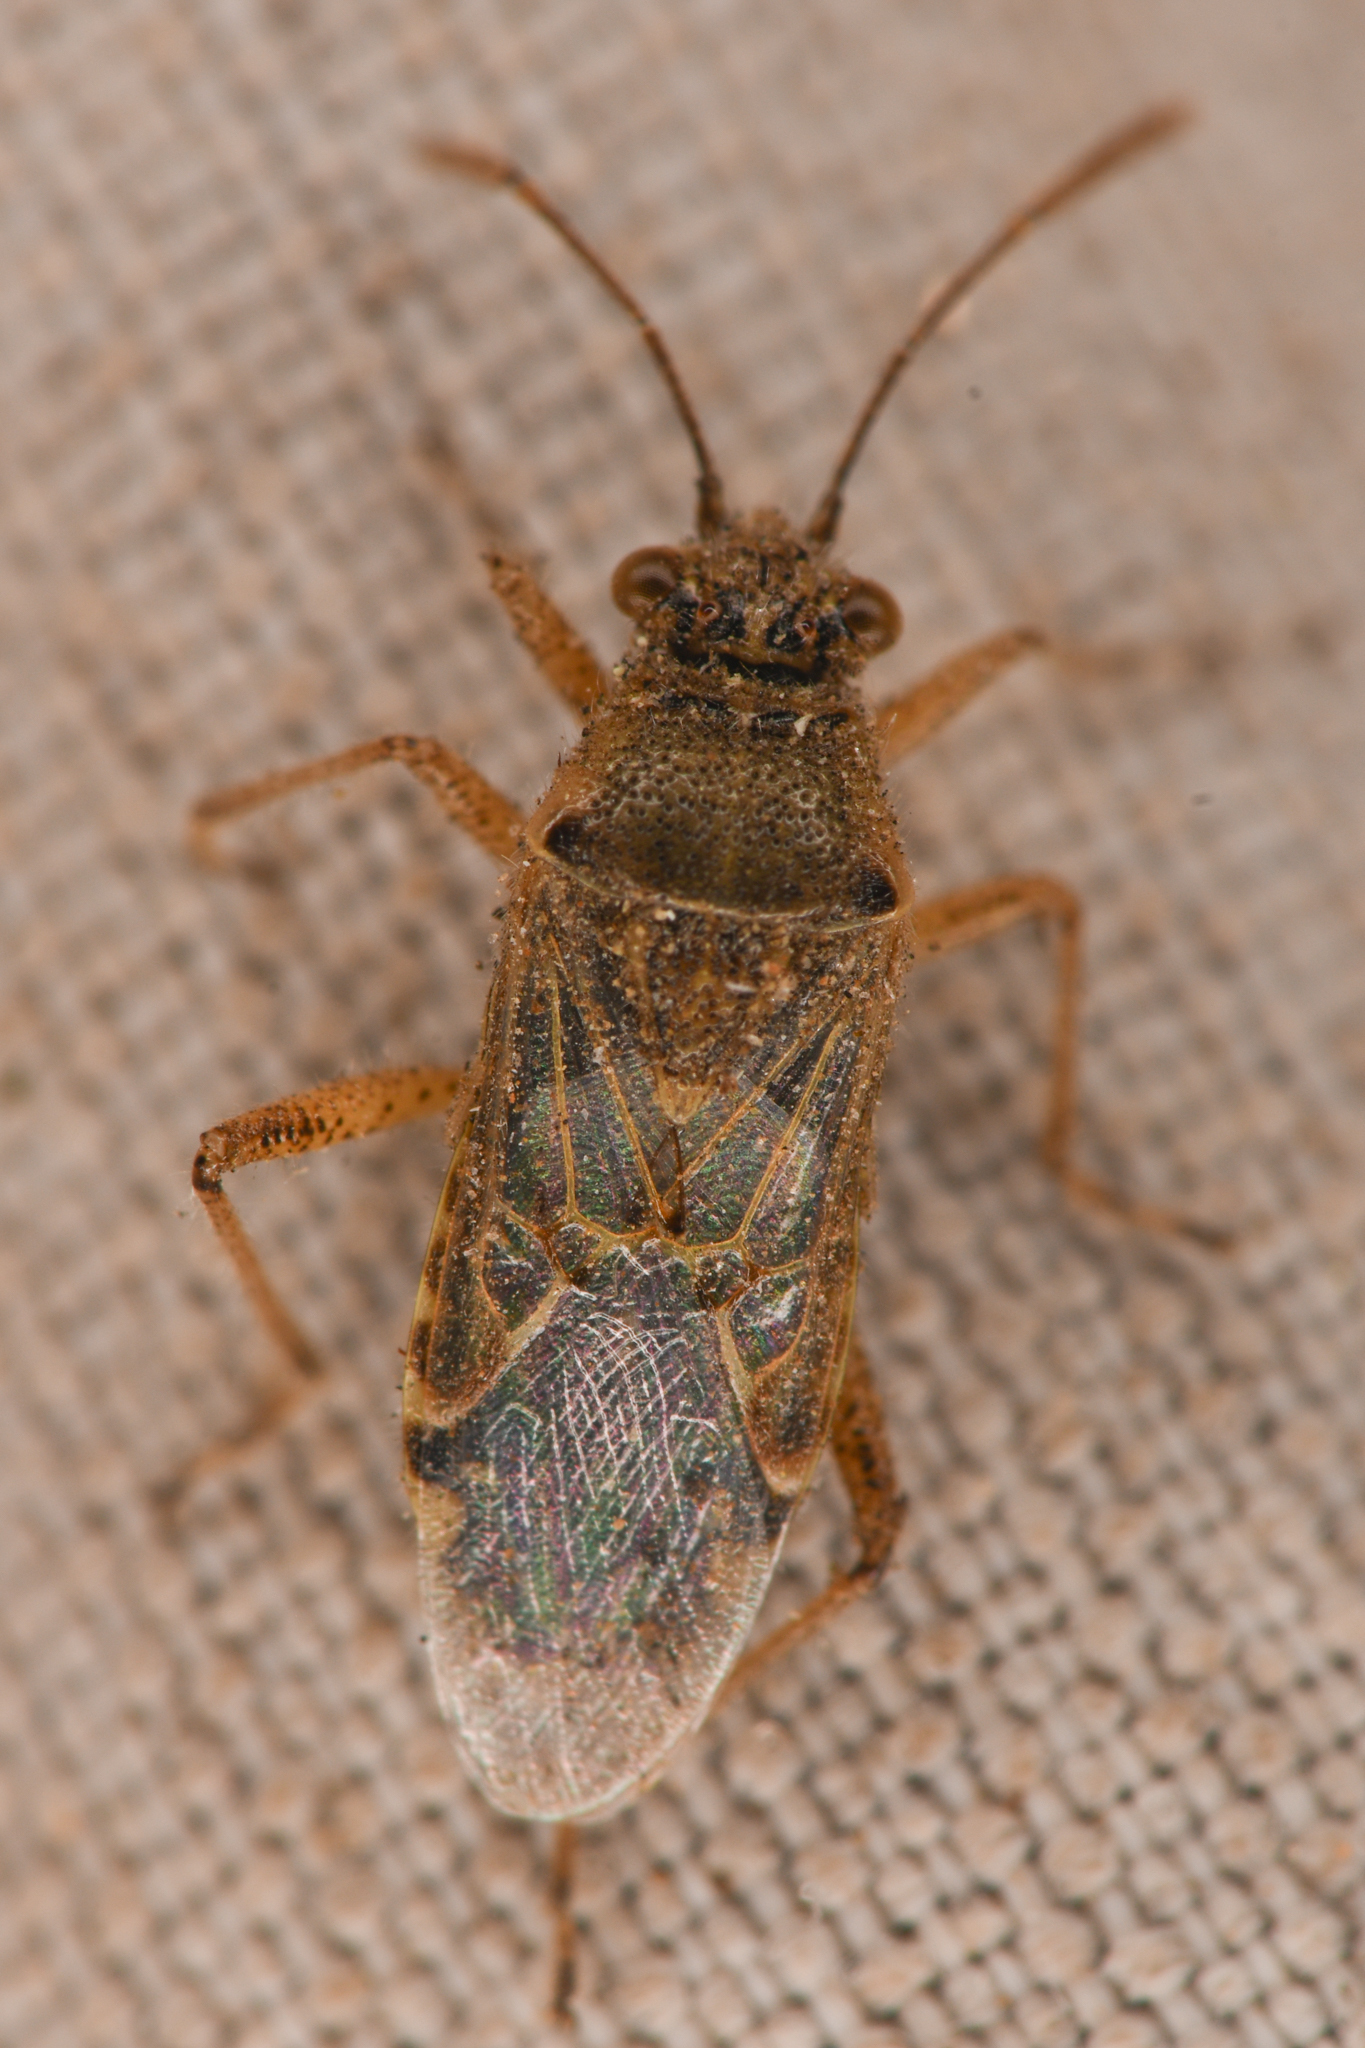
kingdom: Animalia
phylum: Arthropoda
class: Insecta
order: Hemiptera
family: Rhopalidae
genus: Liorhyssus
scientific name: Liorhyssus hyalinus
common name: Scentless plant bug
